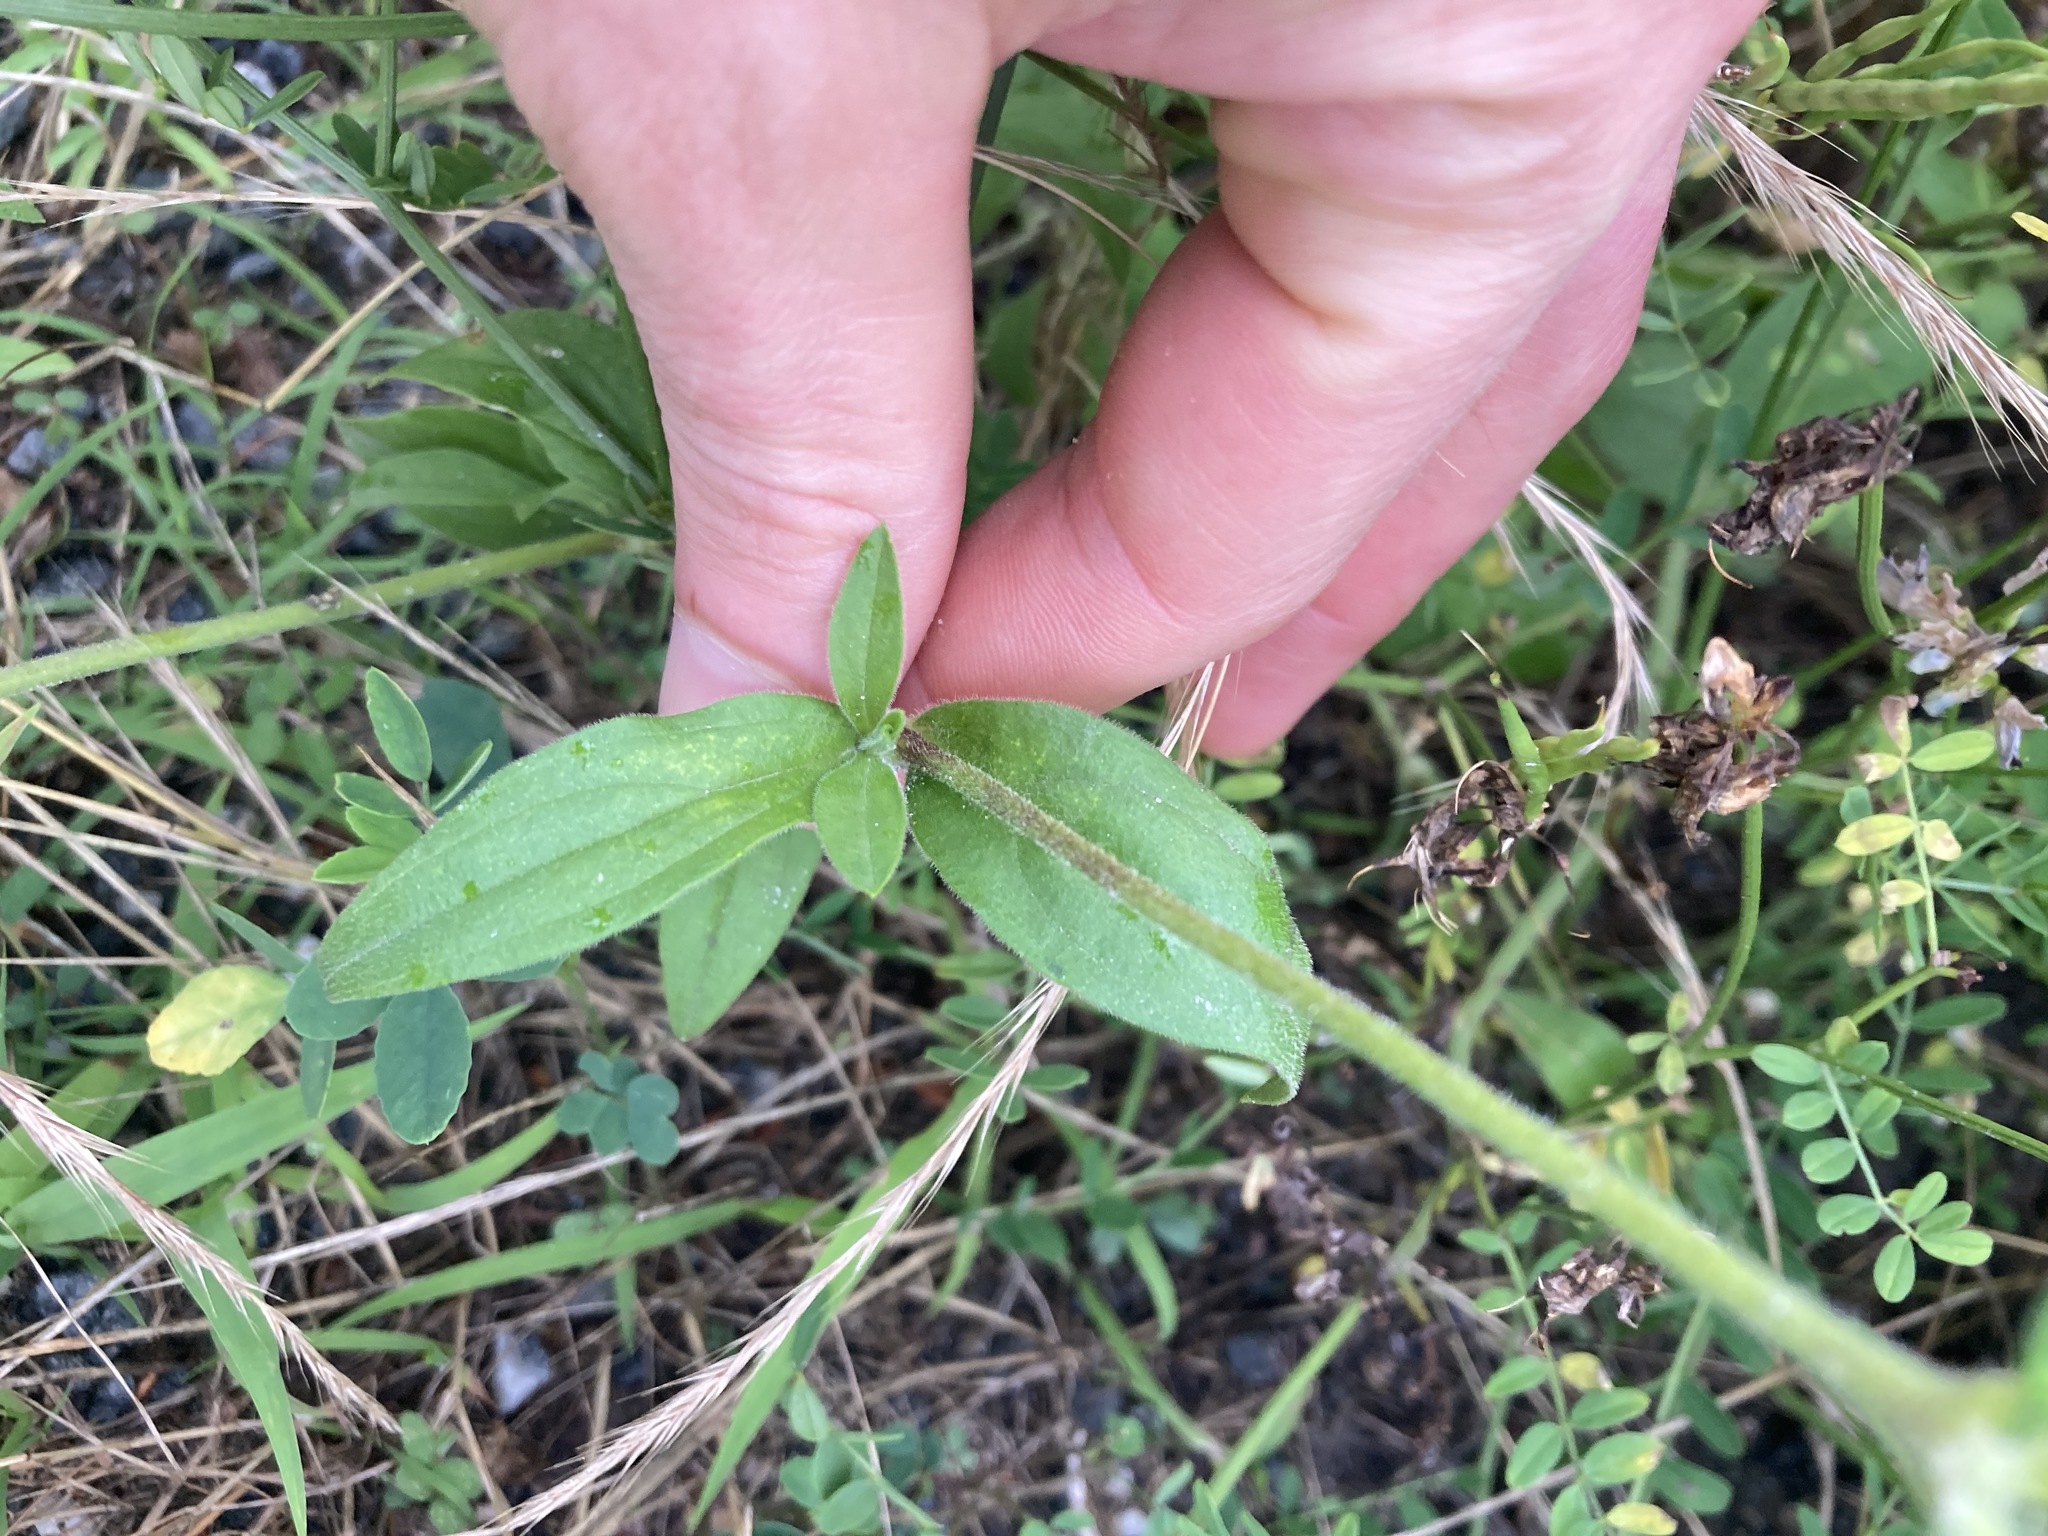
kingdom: Plantae
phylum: Tracheophyta
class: Magnoliopsida
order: Caryophyllales
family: Caryophyllaceae
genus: Silene
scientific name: Silene latifolia
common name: White campion
